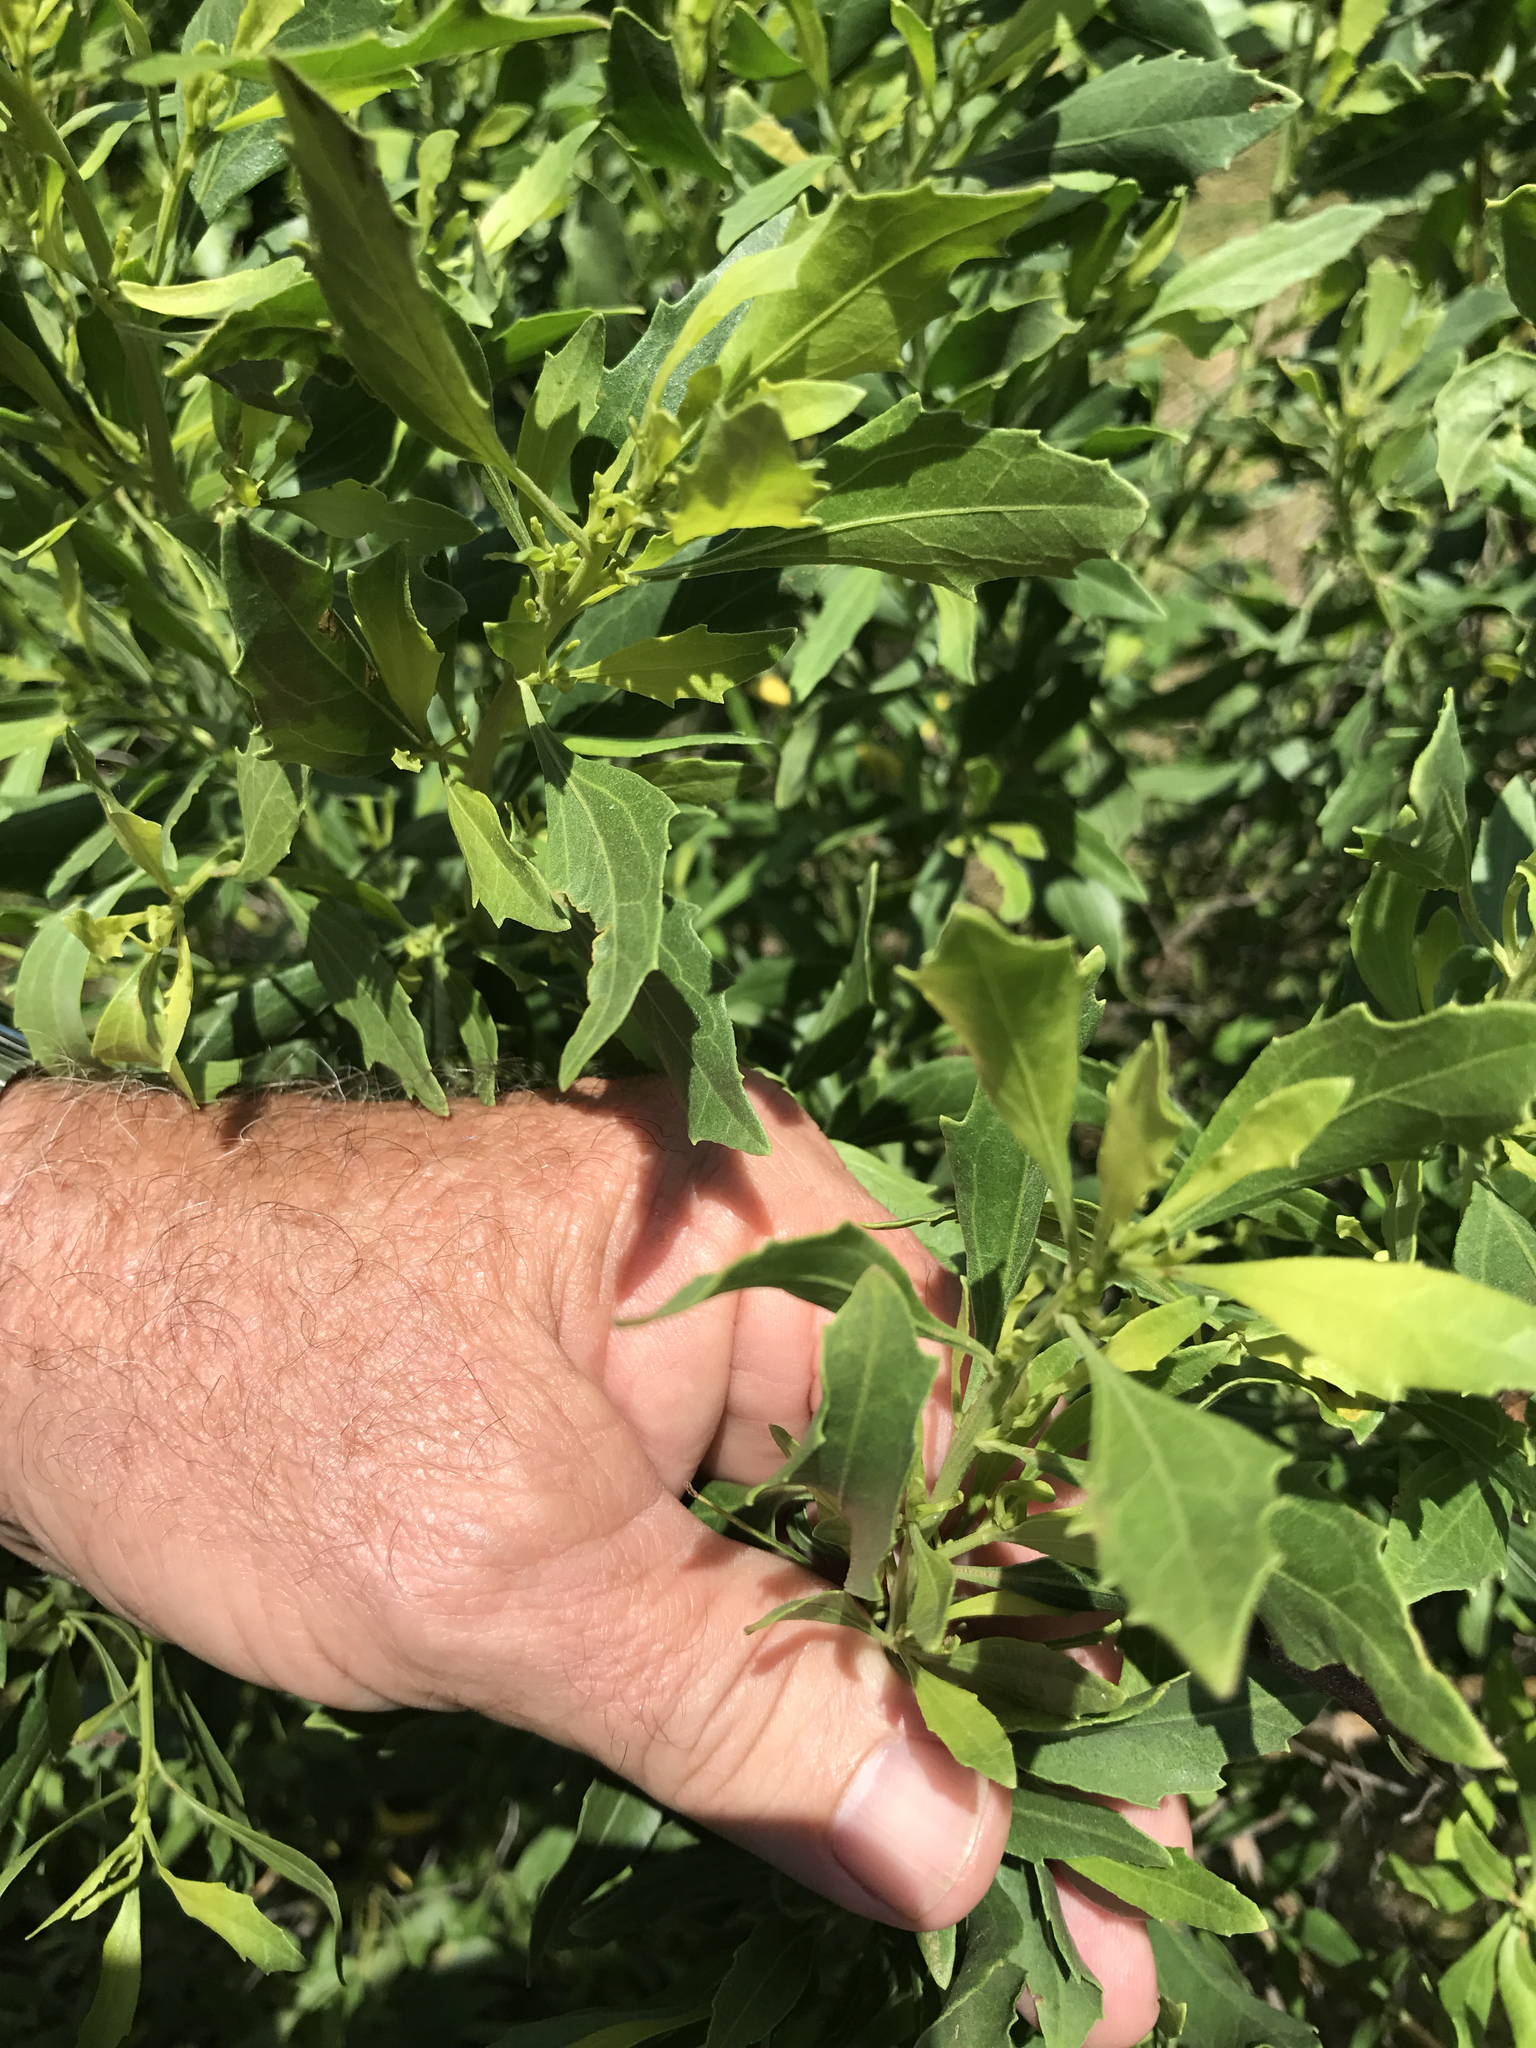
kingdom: Plantae
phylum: Tracheophyta
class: Magnoliopsida
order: Asterales
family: Asteraceae
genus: Baccharis
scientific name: Baccharis halimifolia
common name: Eastern baccharis
